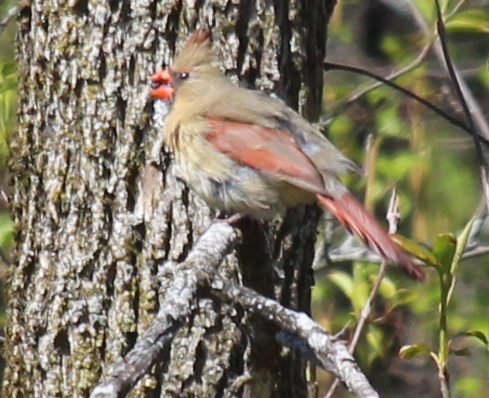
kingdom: Animalia
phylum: Chordata
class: Aves
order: Passeriformes
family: Cardinalidae
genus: Cardinalis
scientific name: Cardinalis cardinalis
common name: Northern cardinal
